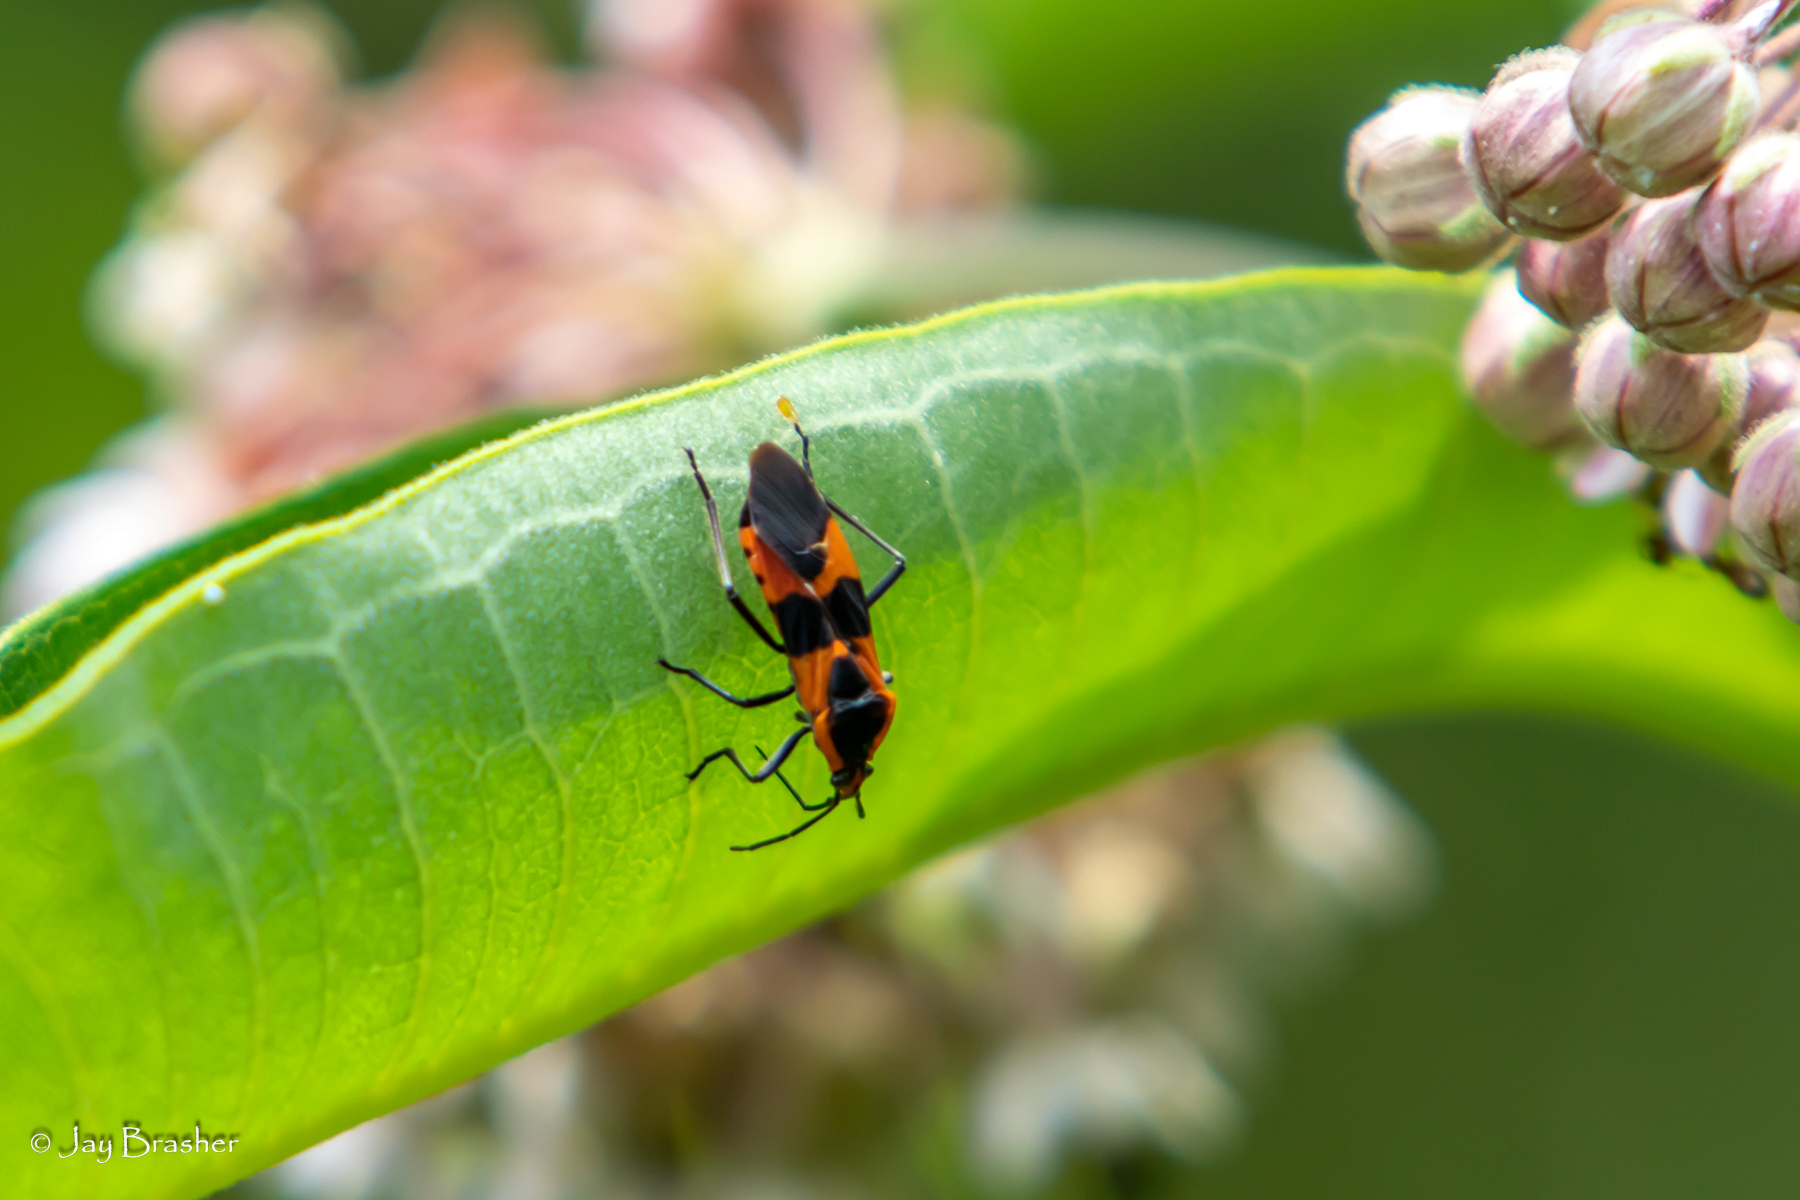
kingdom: Animalia
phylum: Arthropoda
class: Insecta
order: Hemiptera
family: Lygaeidae
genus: Oncopeltus
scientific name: Oncopeltus fasciatus
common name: Large milkweed bug
